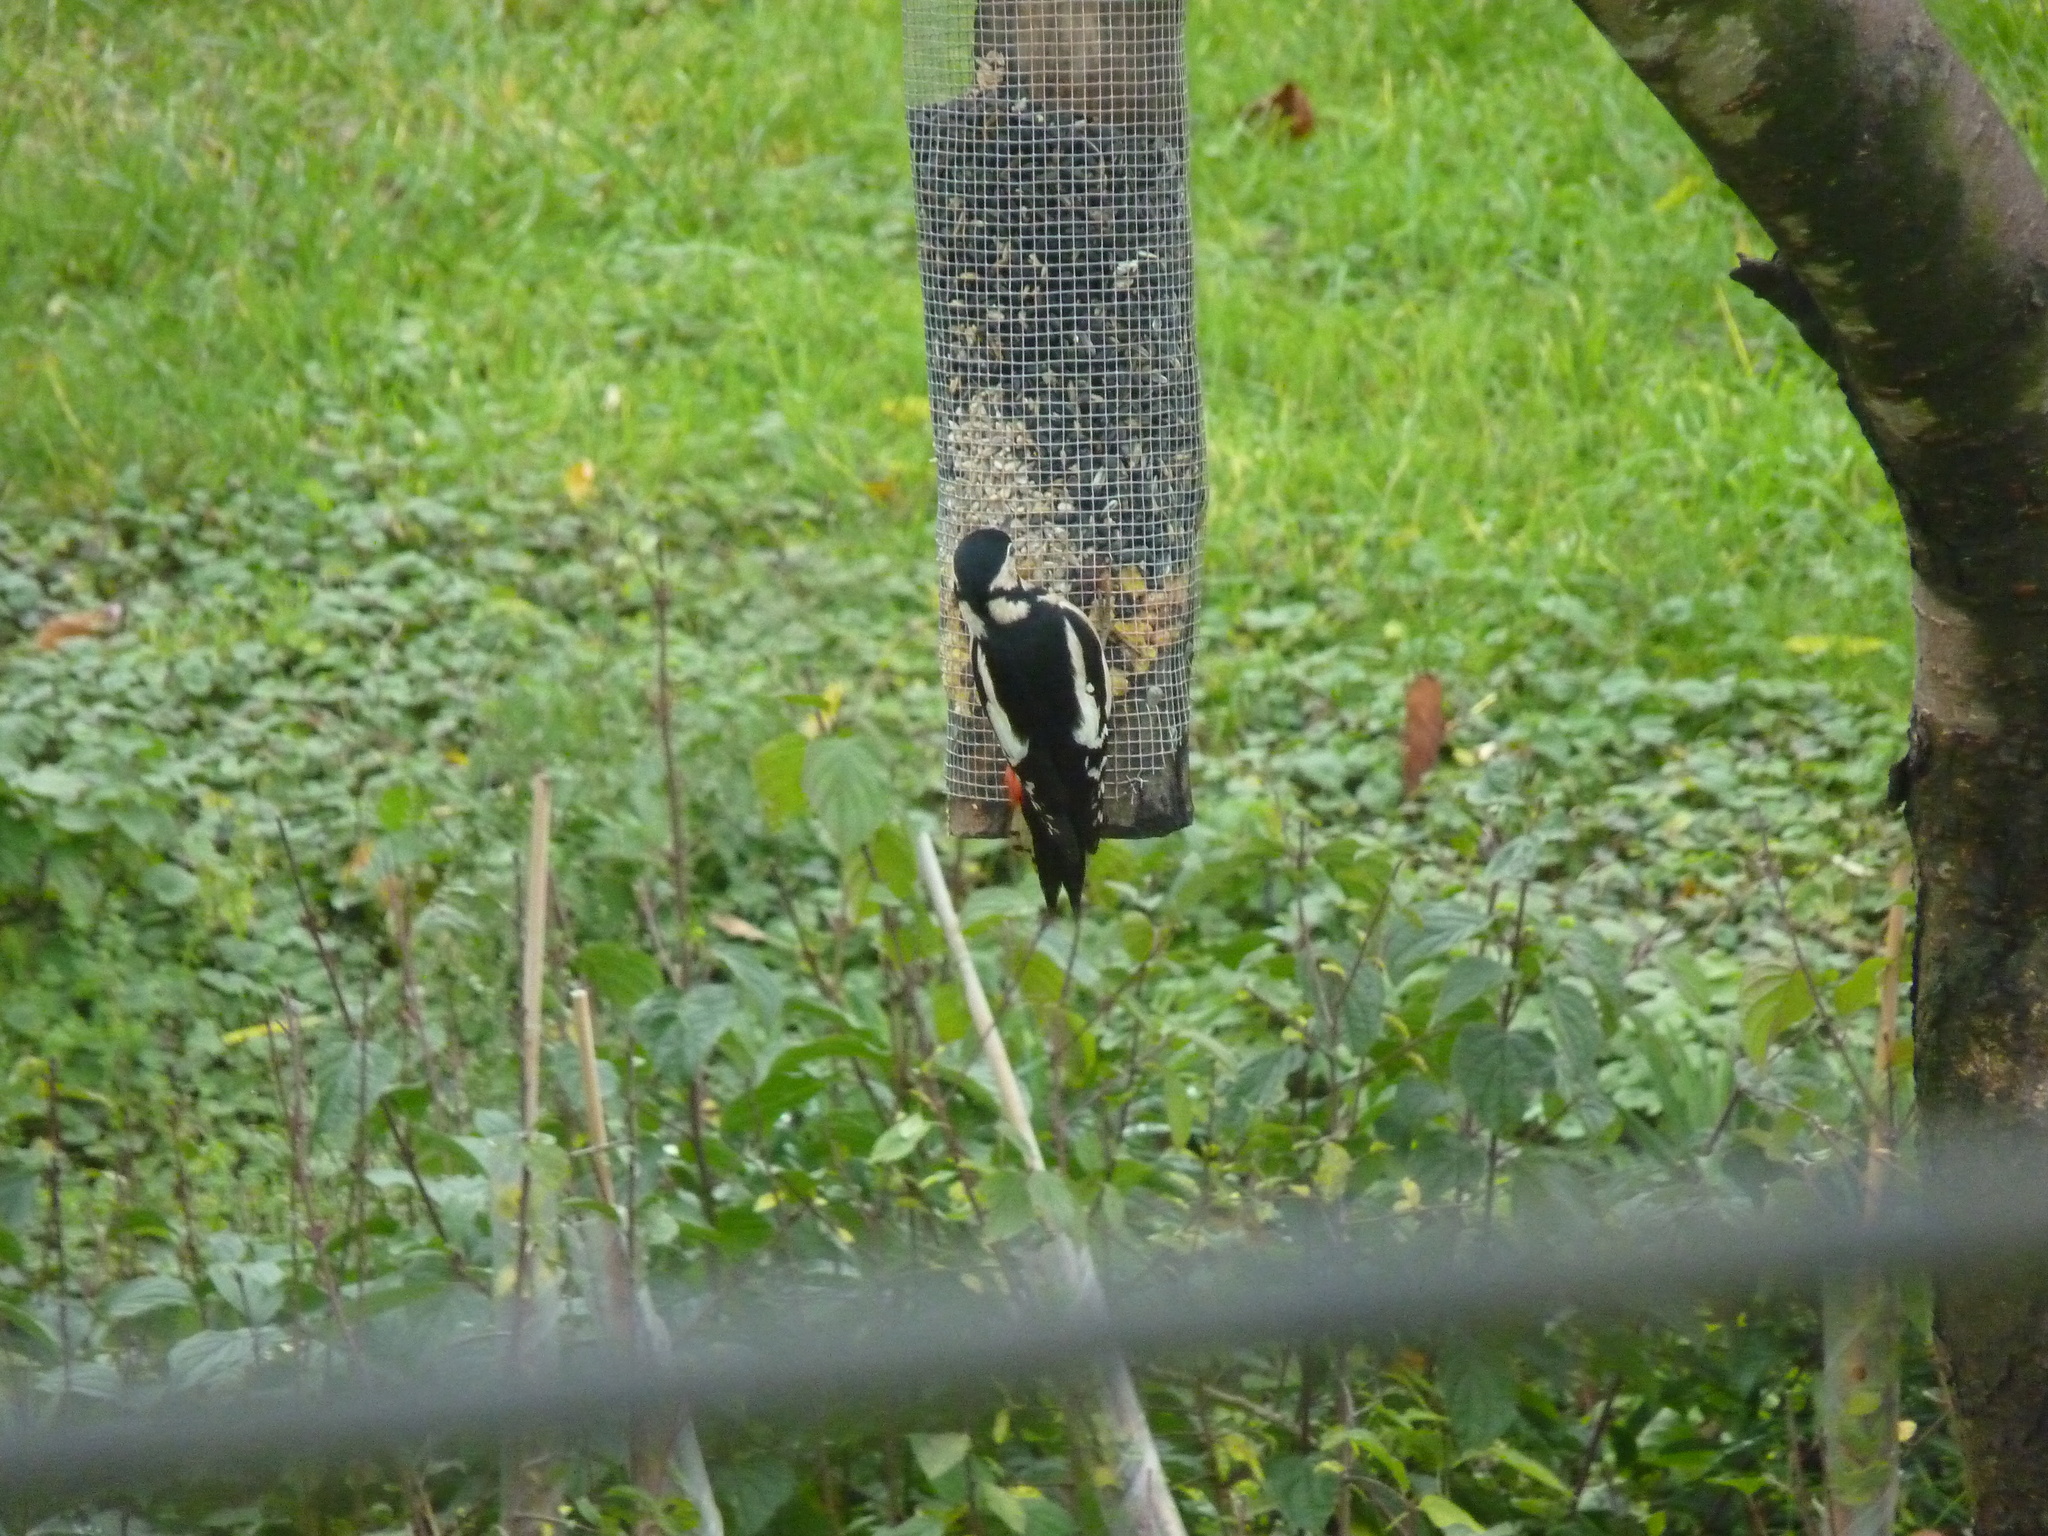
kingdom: Animalia
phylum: Chordata
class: Aves
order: Piciformes
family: Picidae
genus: Dendrocopos
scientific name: Dendrocopos major
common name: Great spotted woodpecker
